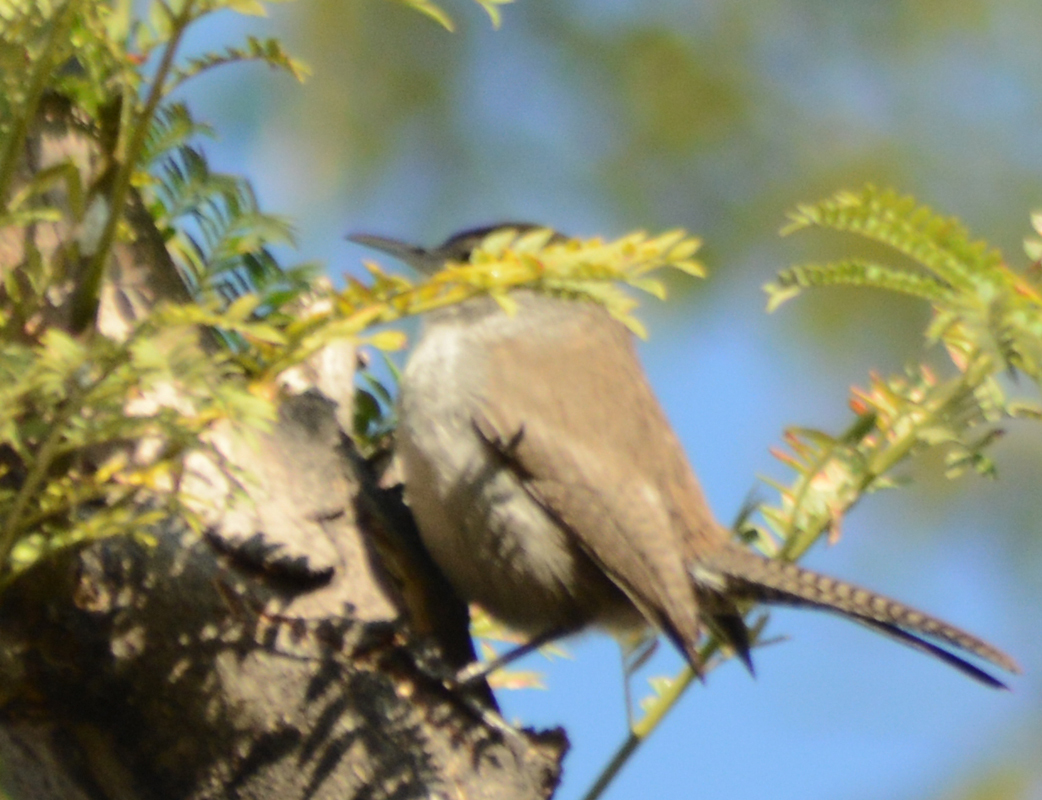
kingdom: Animalia
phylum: Chordata
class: Aves
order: Passeriformes
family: Troglodytidae
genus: Thryomanes
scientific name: Thryomanes bewickii
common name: Bewick's wren
